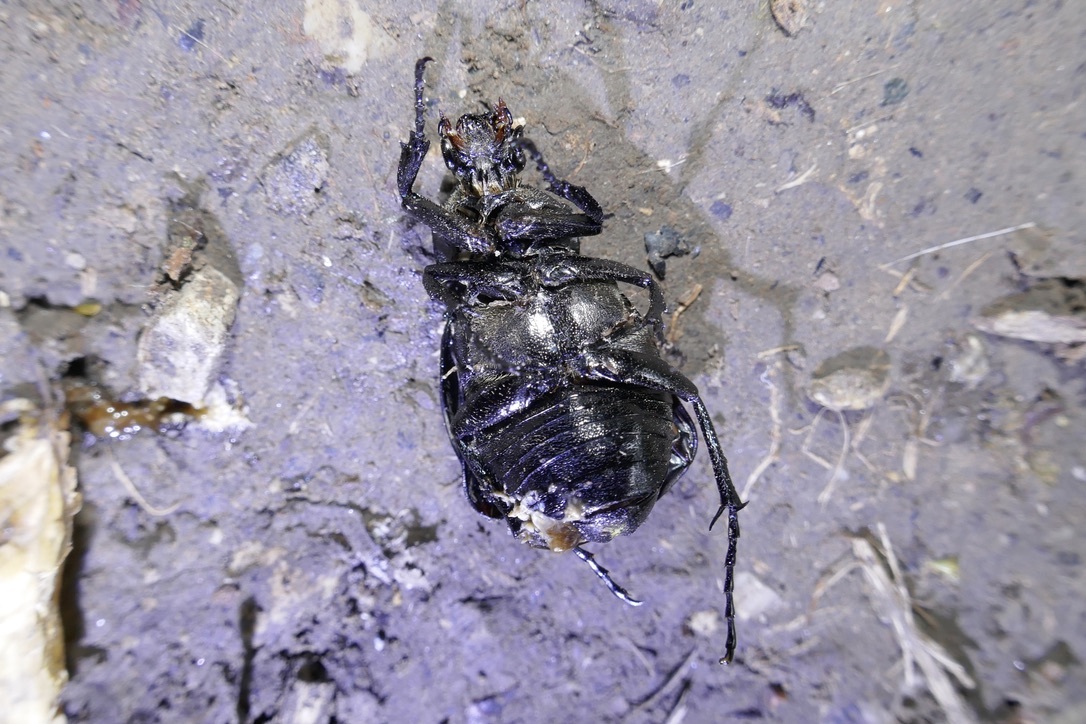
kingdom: Animalia
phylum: Arthropoda
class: Insecta
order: Coleoptera
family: Scarabaeidae
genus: Gnorimus
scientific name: Gnorimus variabilis
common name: Variable chafer
